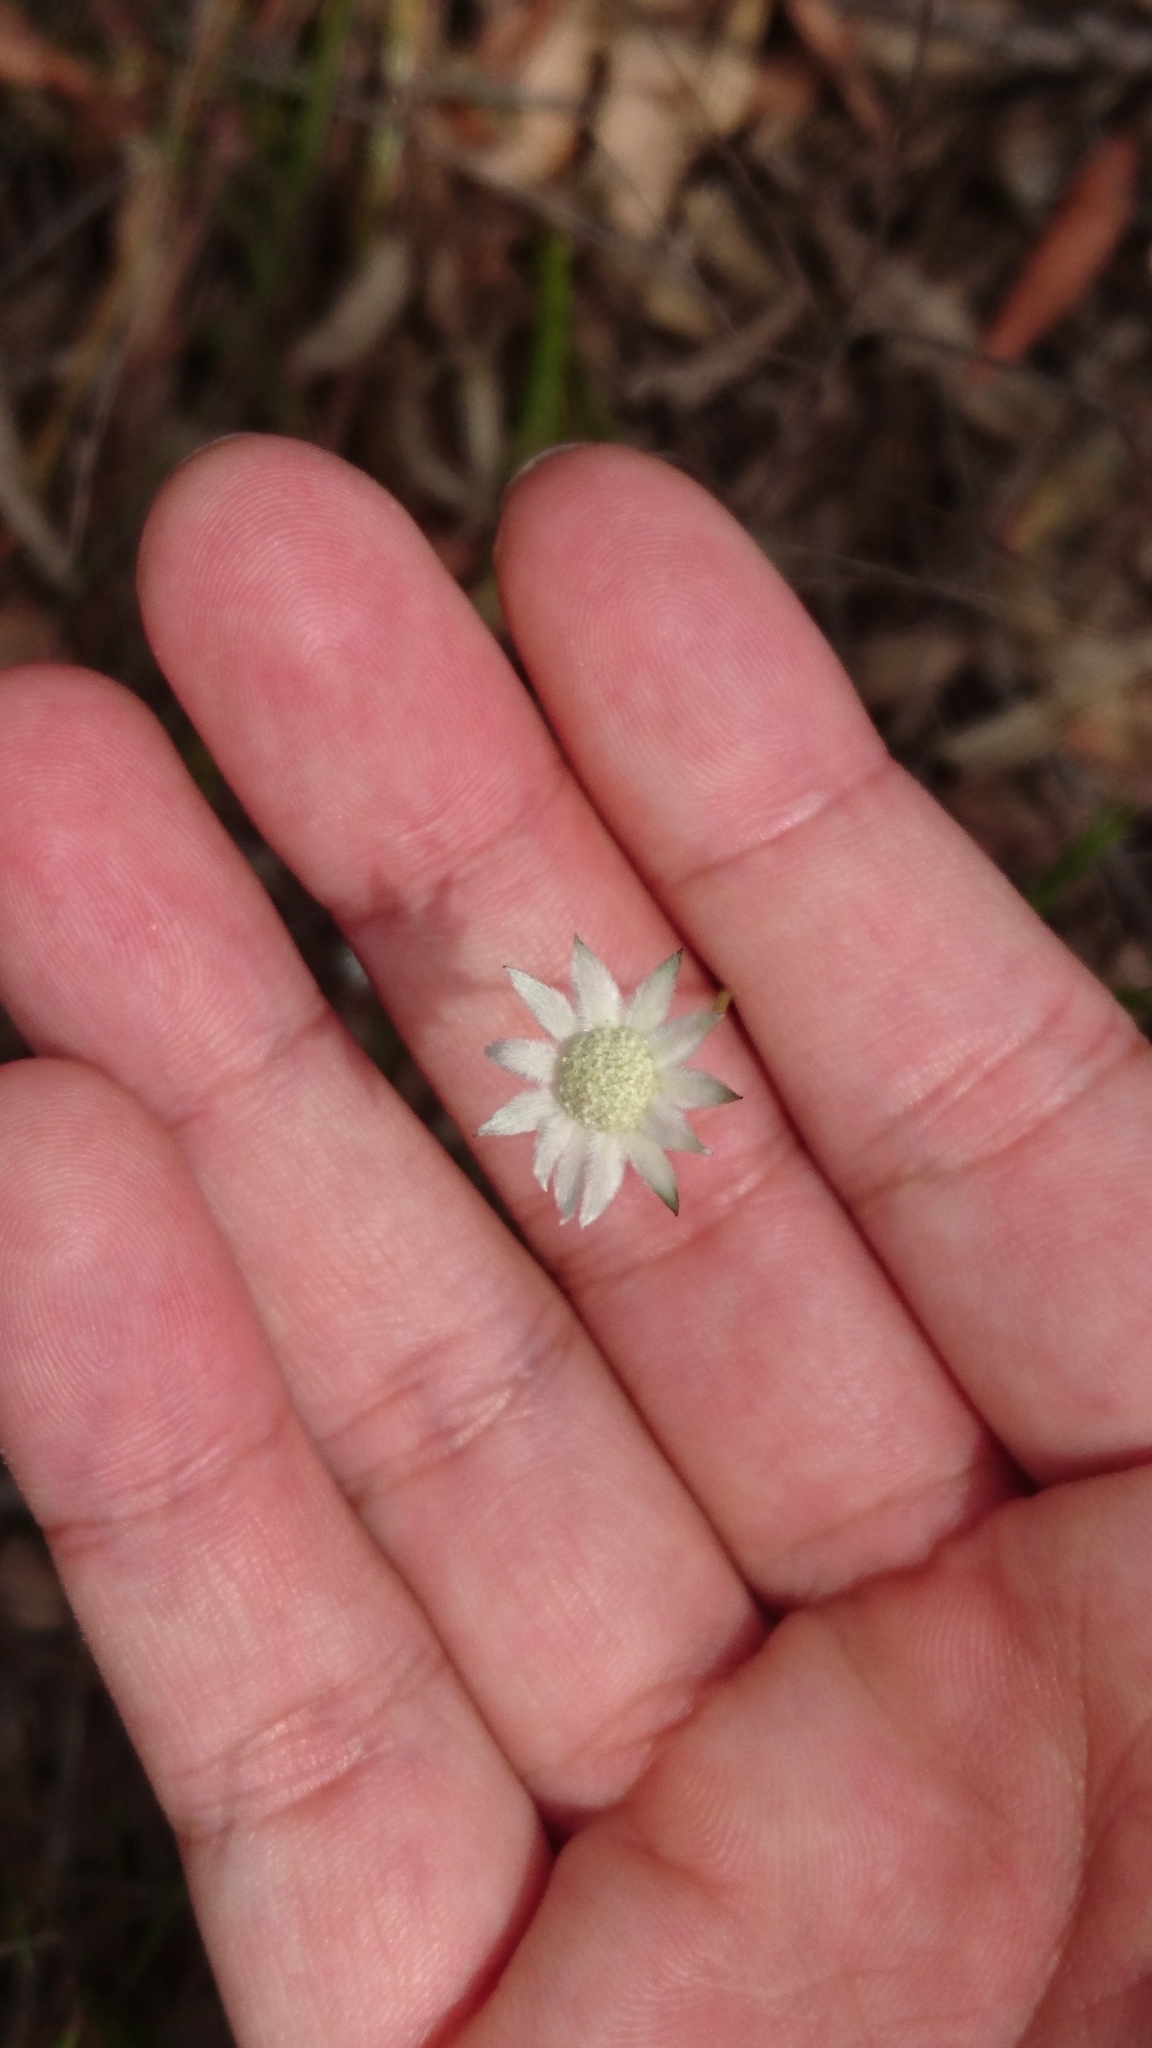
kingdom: Plantae
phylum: Tracheophyta
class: Magnoliopsida
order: Apiales
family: Apiaceae
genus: Actinotus
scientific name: Actinotus minor
